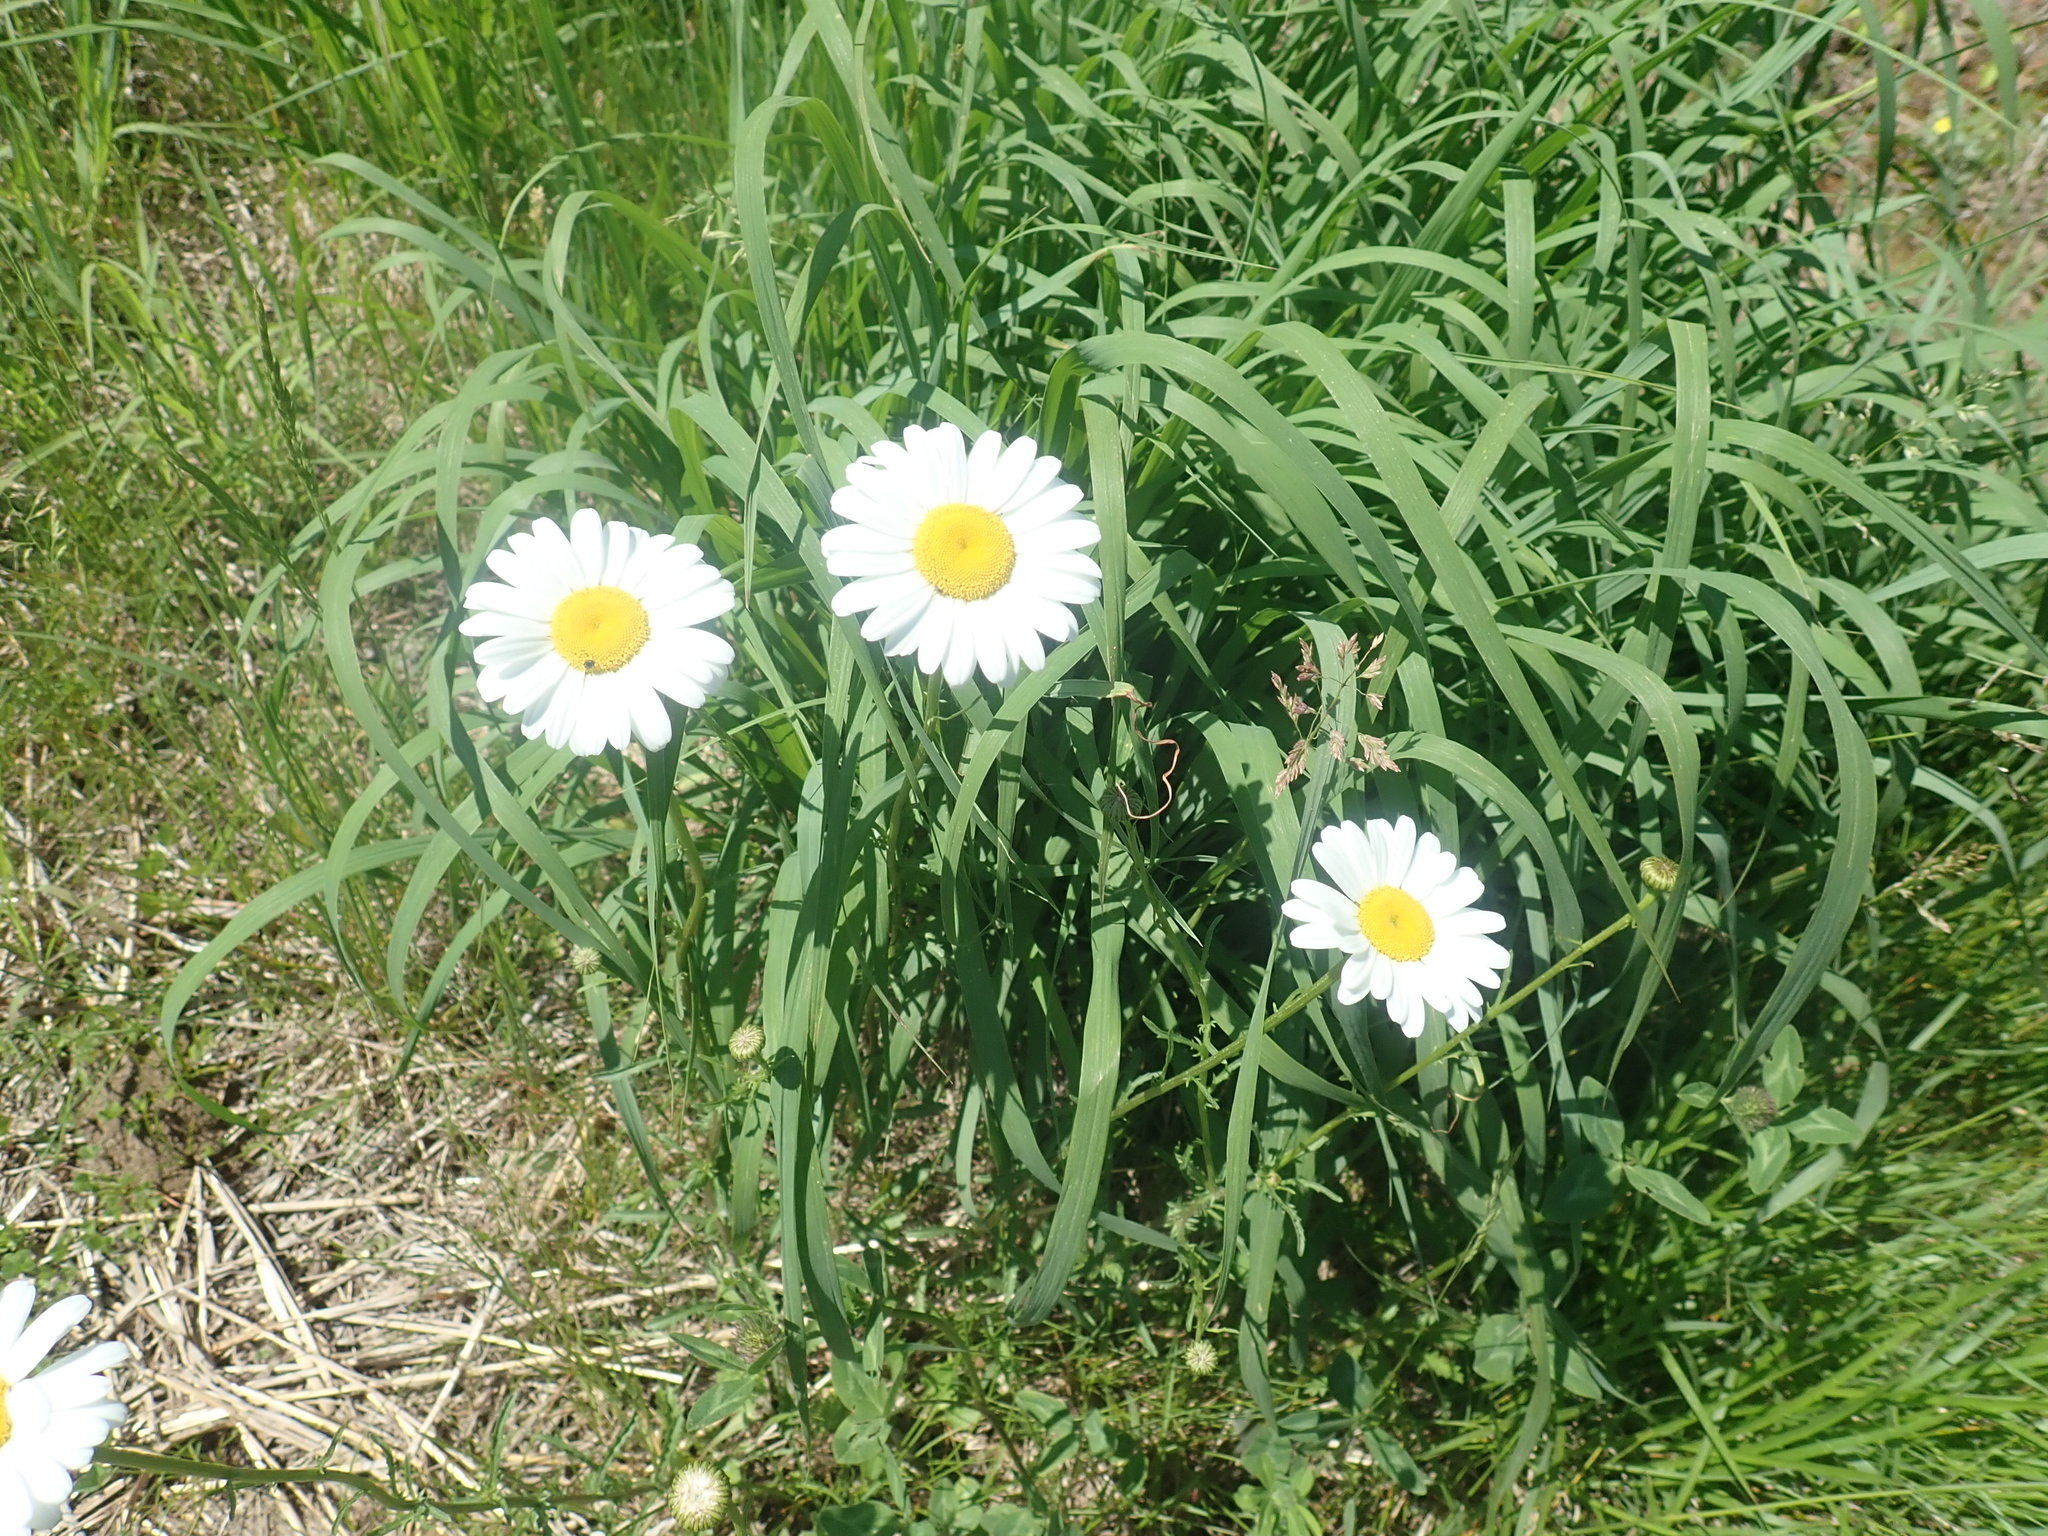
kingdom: Plantae
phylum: Tracheophyta
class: Magnoliopsida
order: Asterales
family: Asteraceae
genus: Leucanthemum
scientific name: Leucanthemum vulgare
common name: Oxeye daisy
